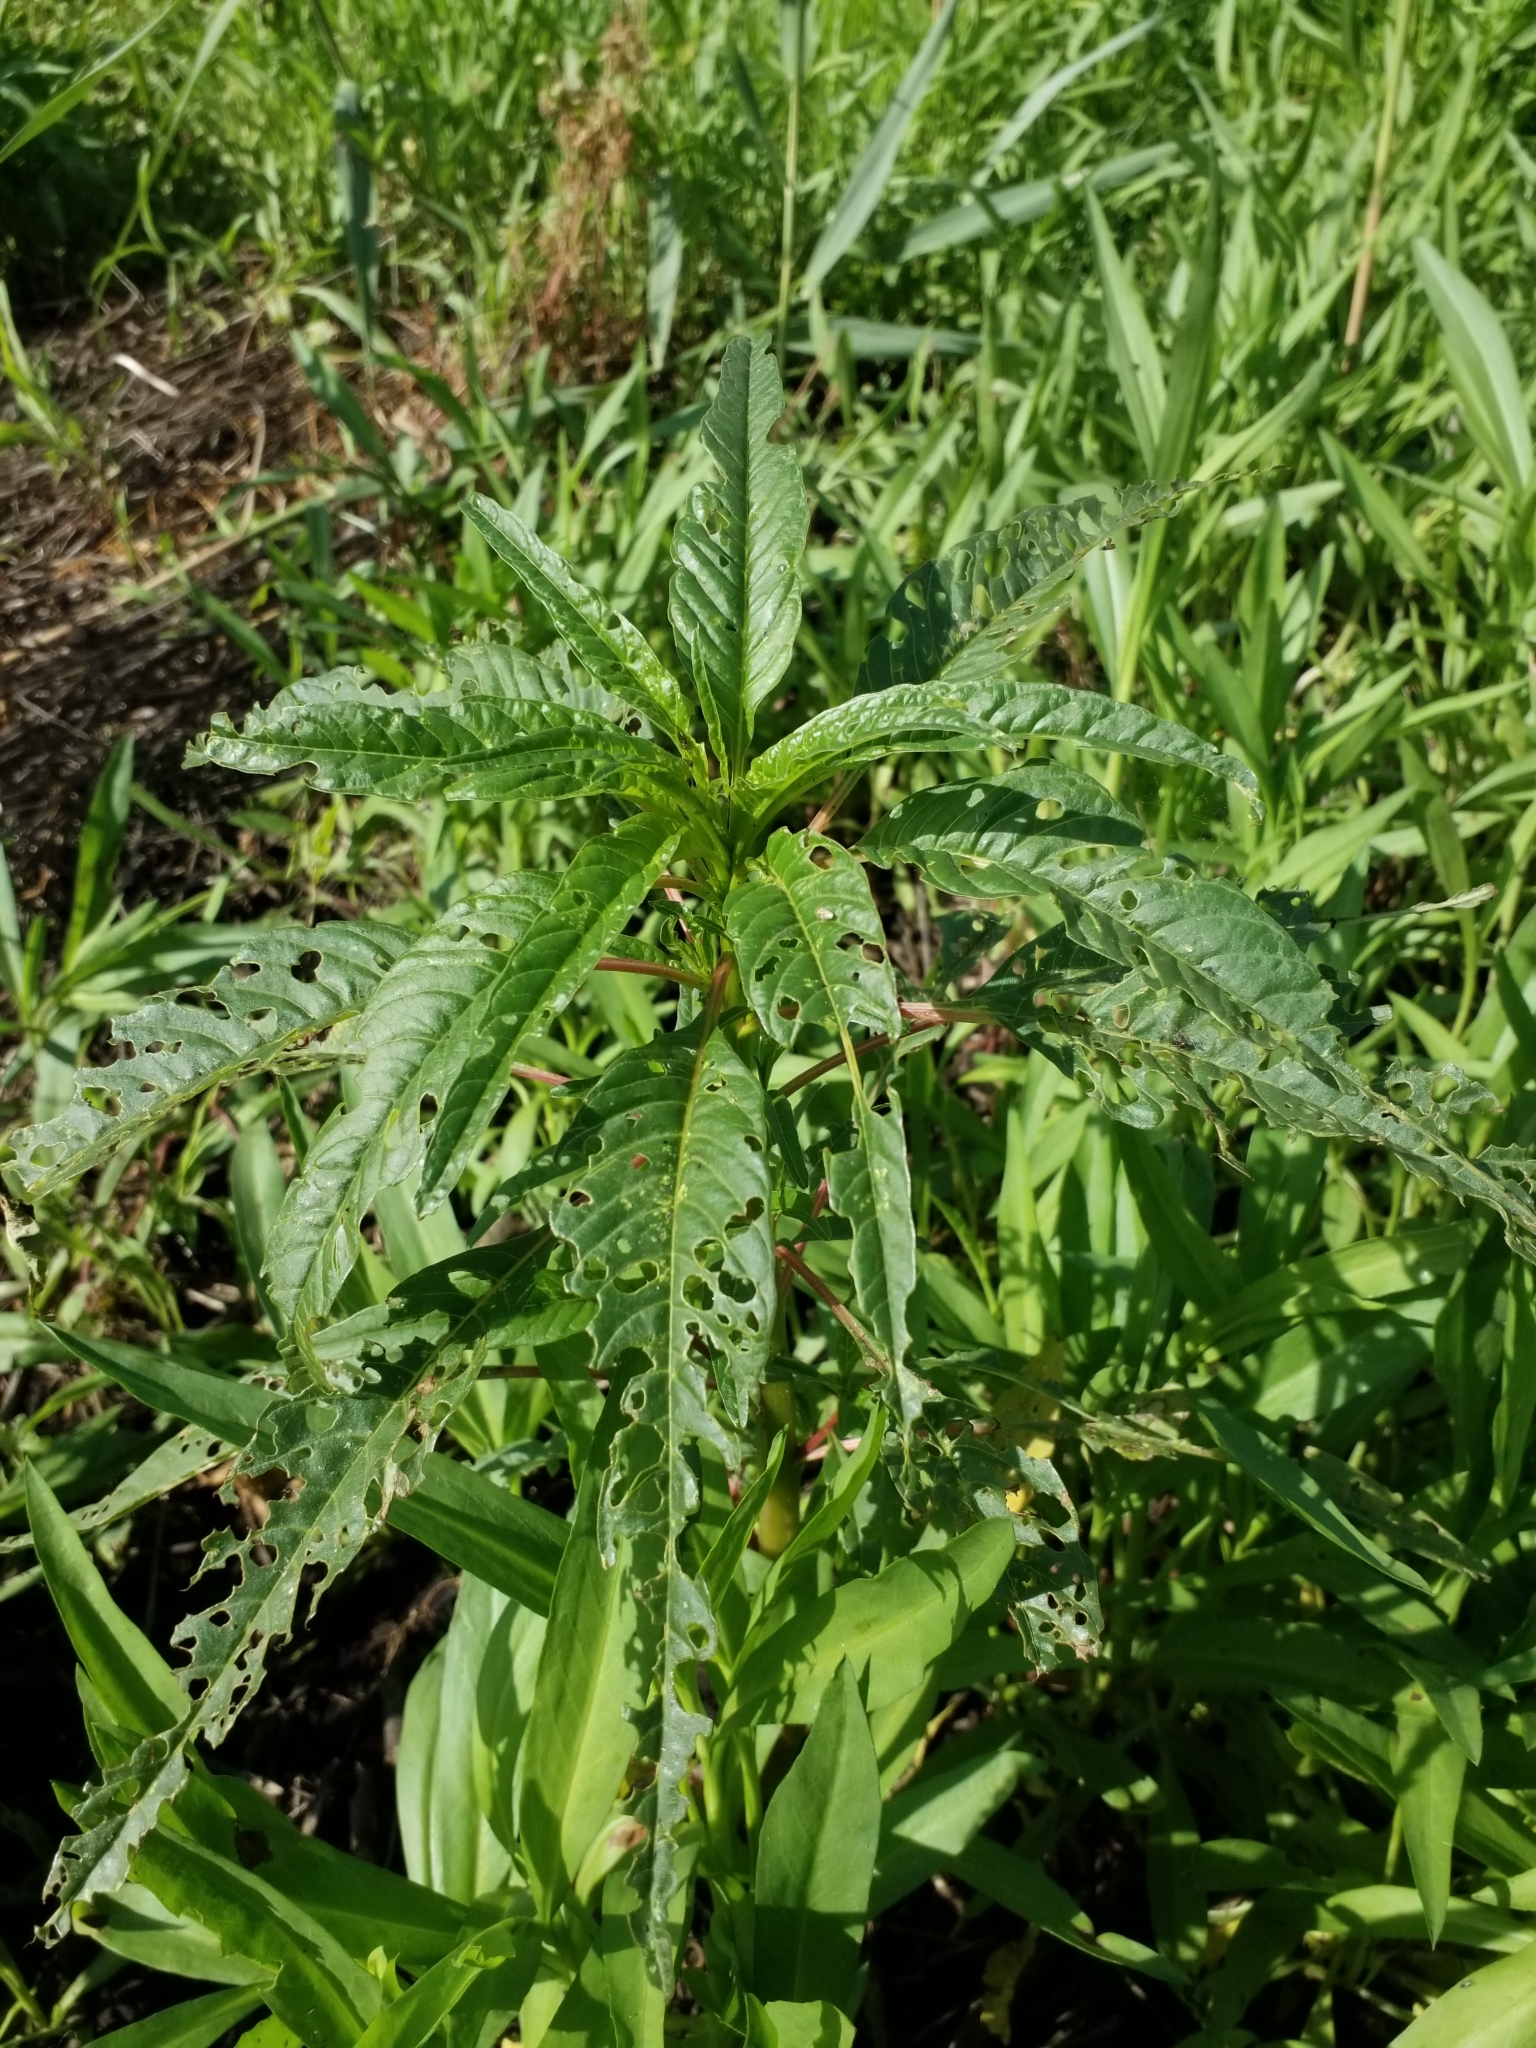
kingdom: Plantae
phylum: Tracheophyta
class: Magnoliopsida
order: Caryophyllales
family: Amaranthaceae
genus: Amaranthus
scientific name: Amaranthus cannabinus
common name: Salt-marsh water-hemp
